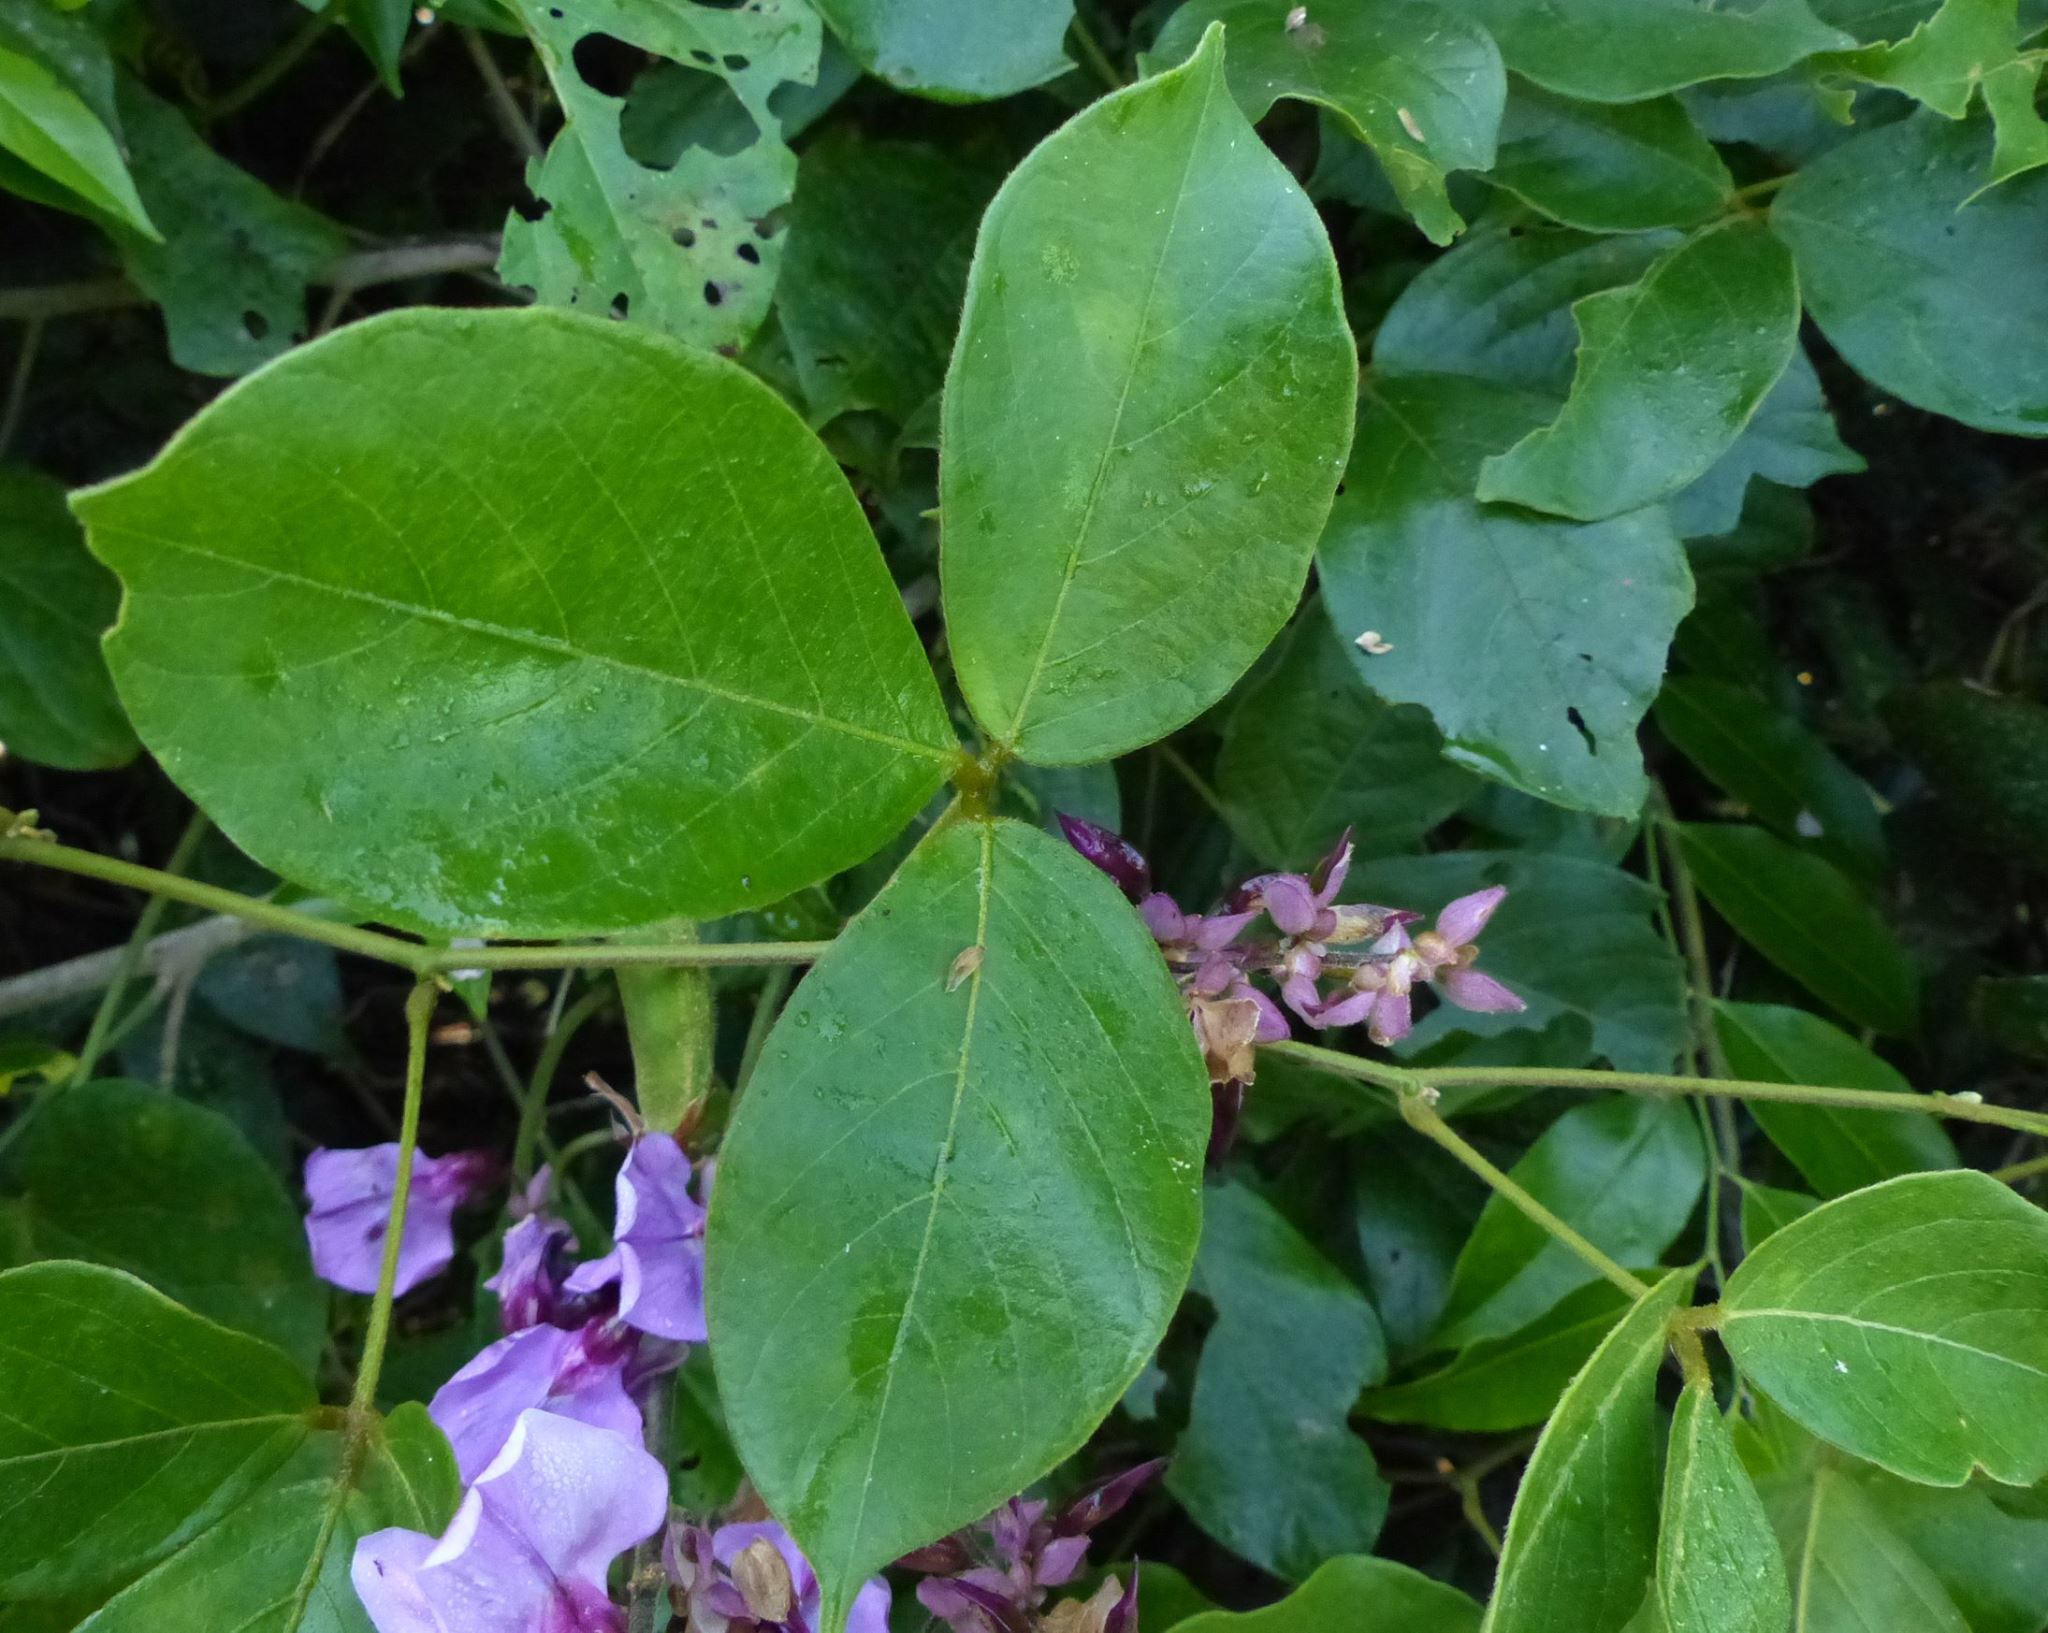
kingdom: Plantae
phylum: Tracheophyta
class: Magnoliopsida
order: Fabales
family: Fabaceae
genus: Dioclea
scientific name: Dioclea virgata
